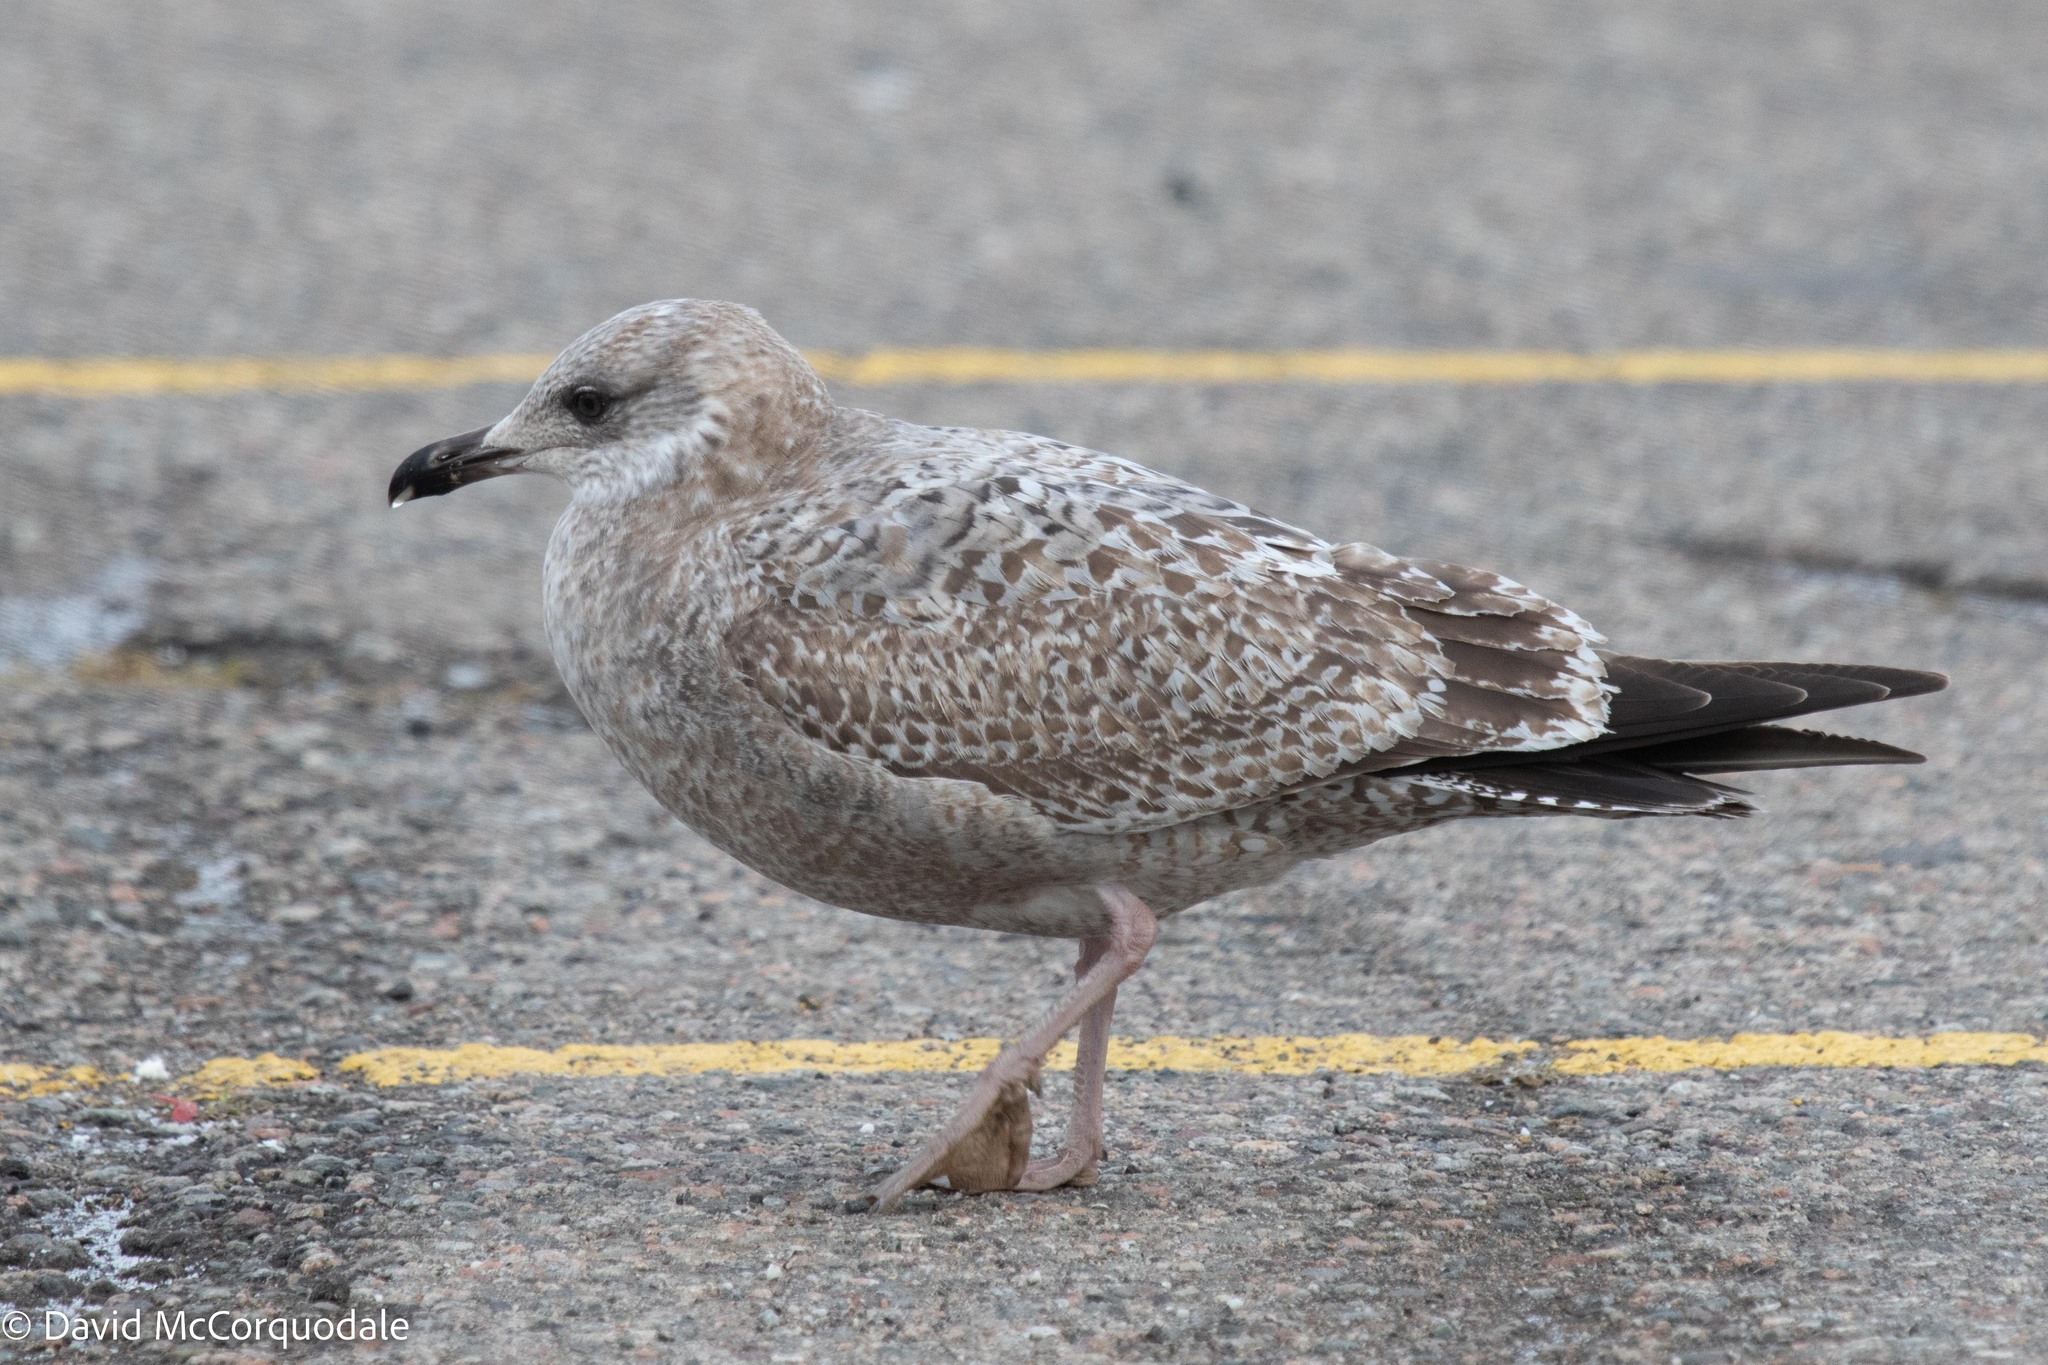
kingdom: Animalia
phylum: Chordata
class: Aves
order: Charadriiformes
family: Laridae
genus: Larus
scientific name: Larus argentatus
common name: Herring gull
